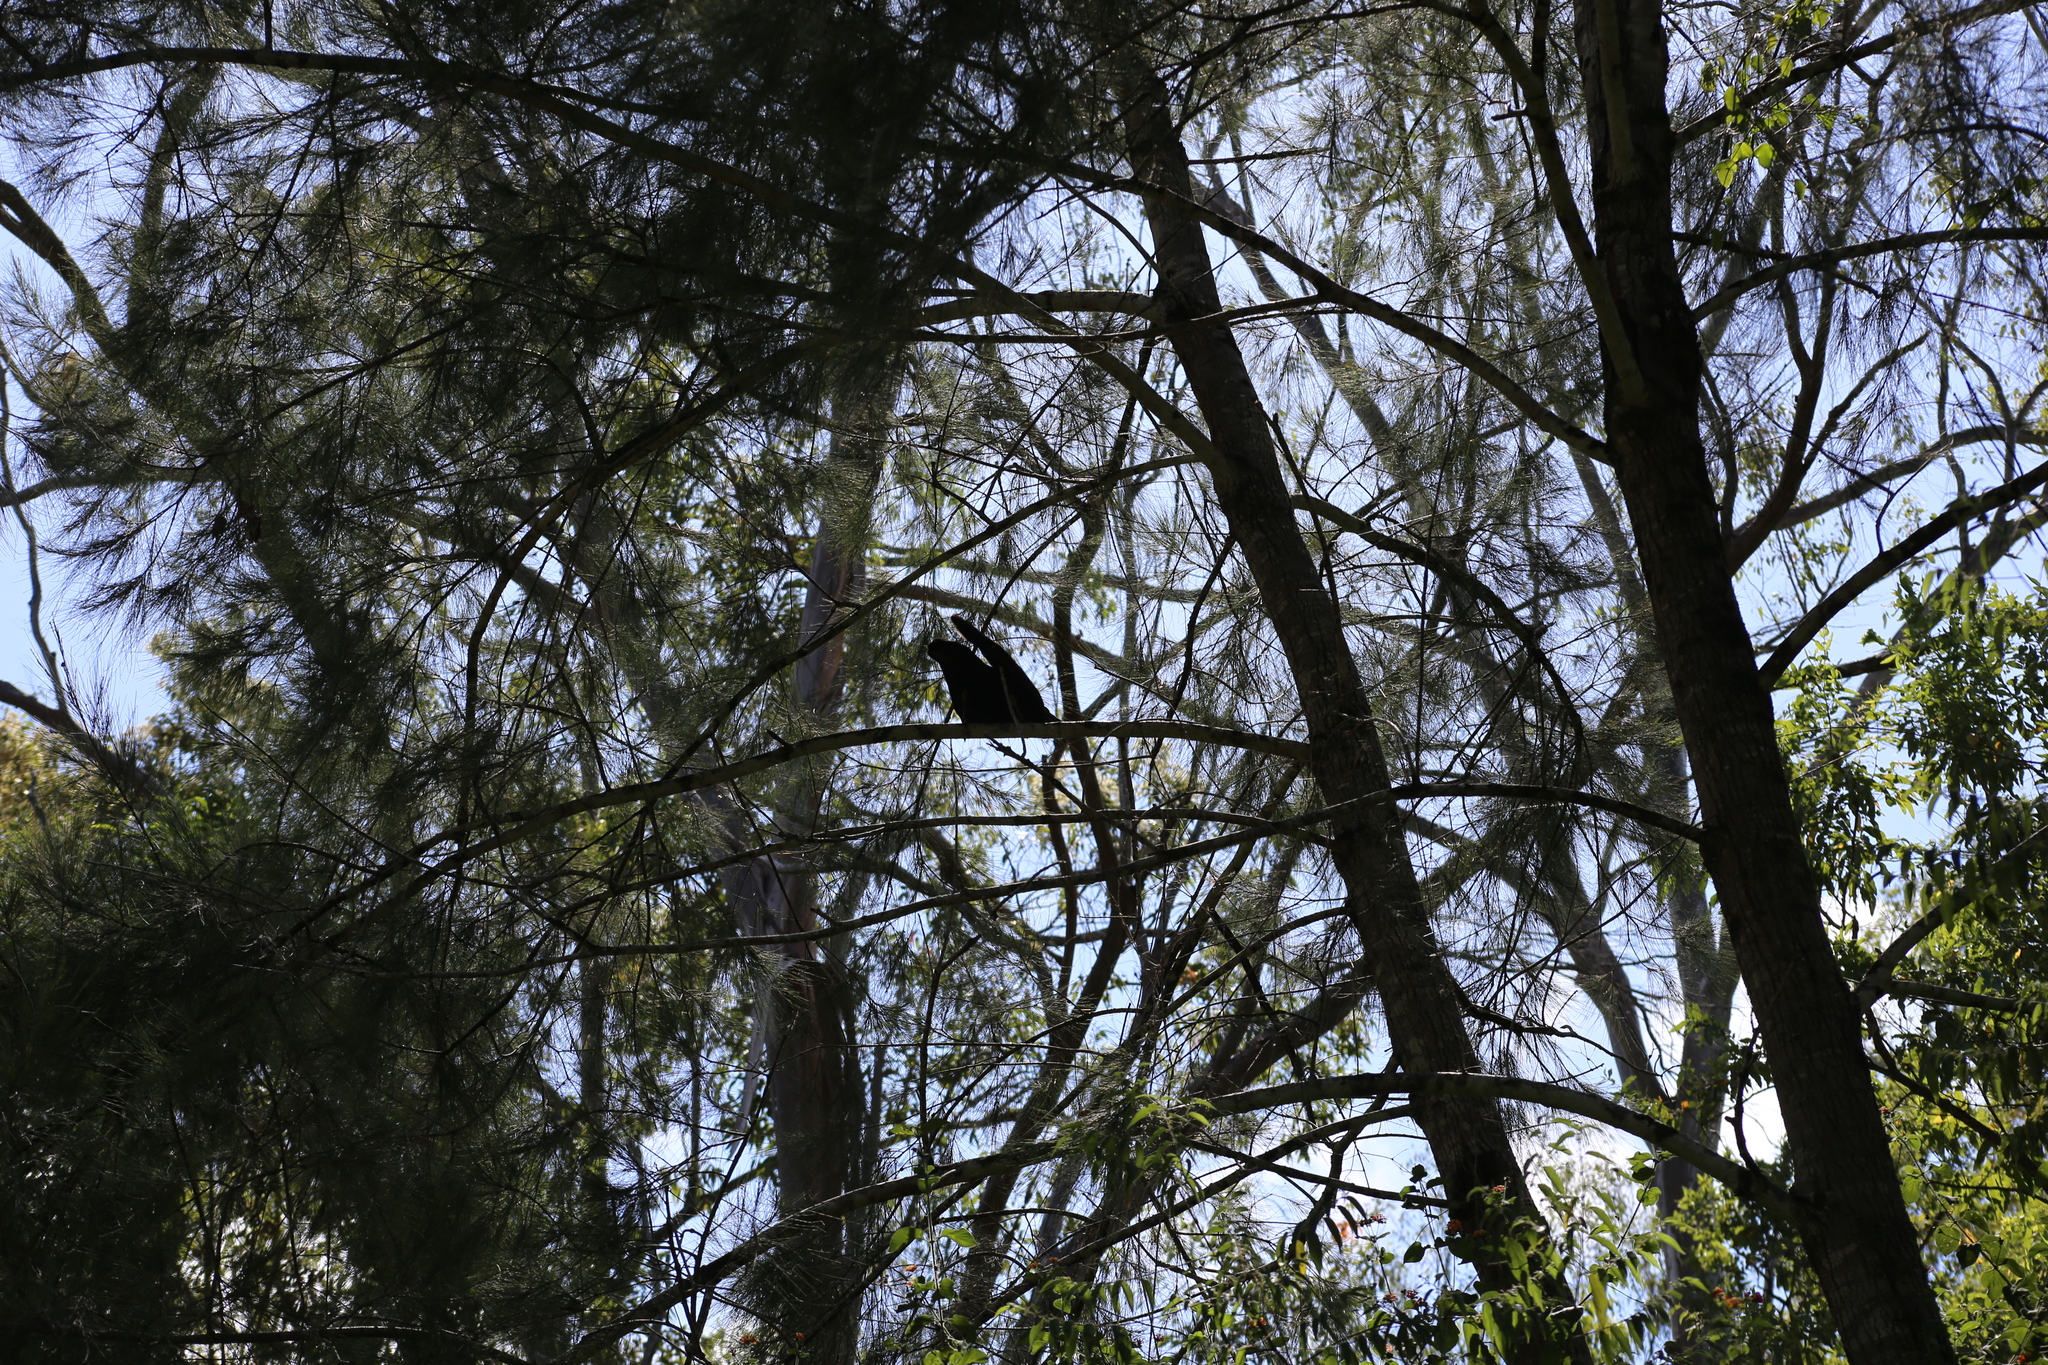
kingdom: Animalia
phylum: Chordata
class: Aves
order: Passeriformes
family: Corvidae
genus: Corvus
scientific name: Corvus orru
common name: Torresian crow
